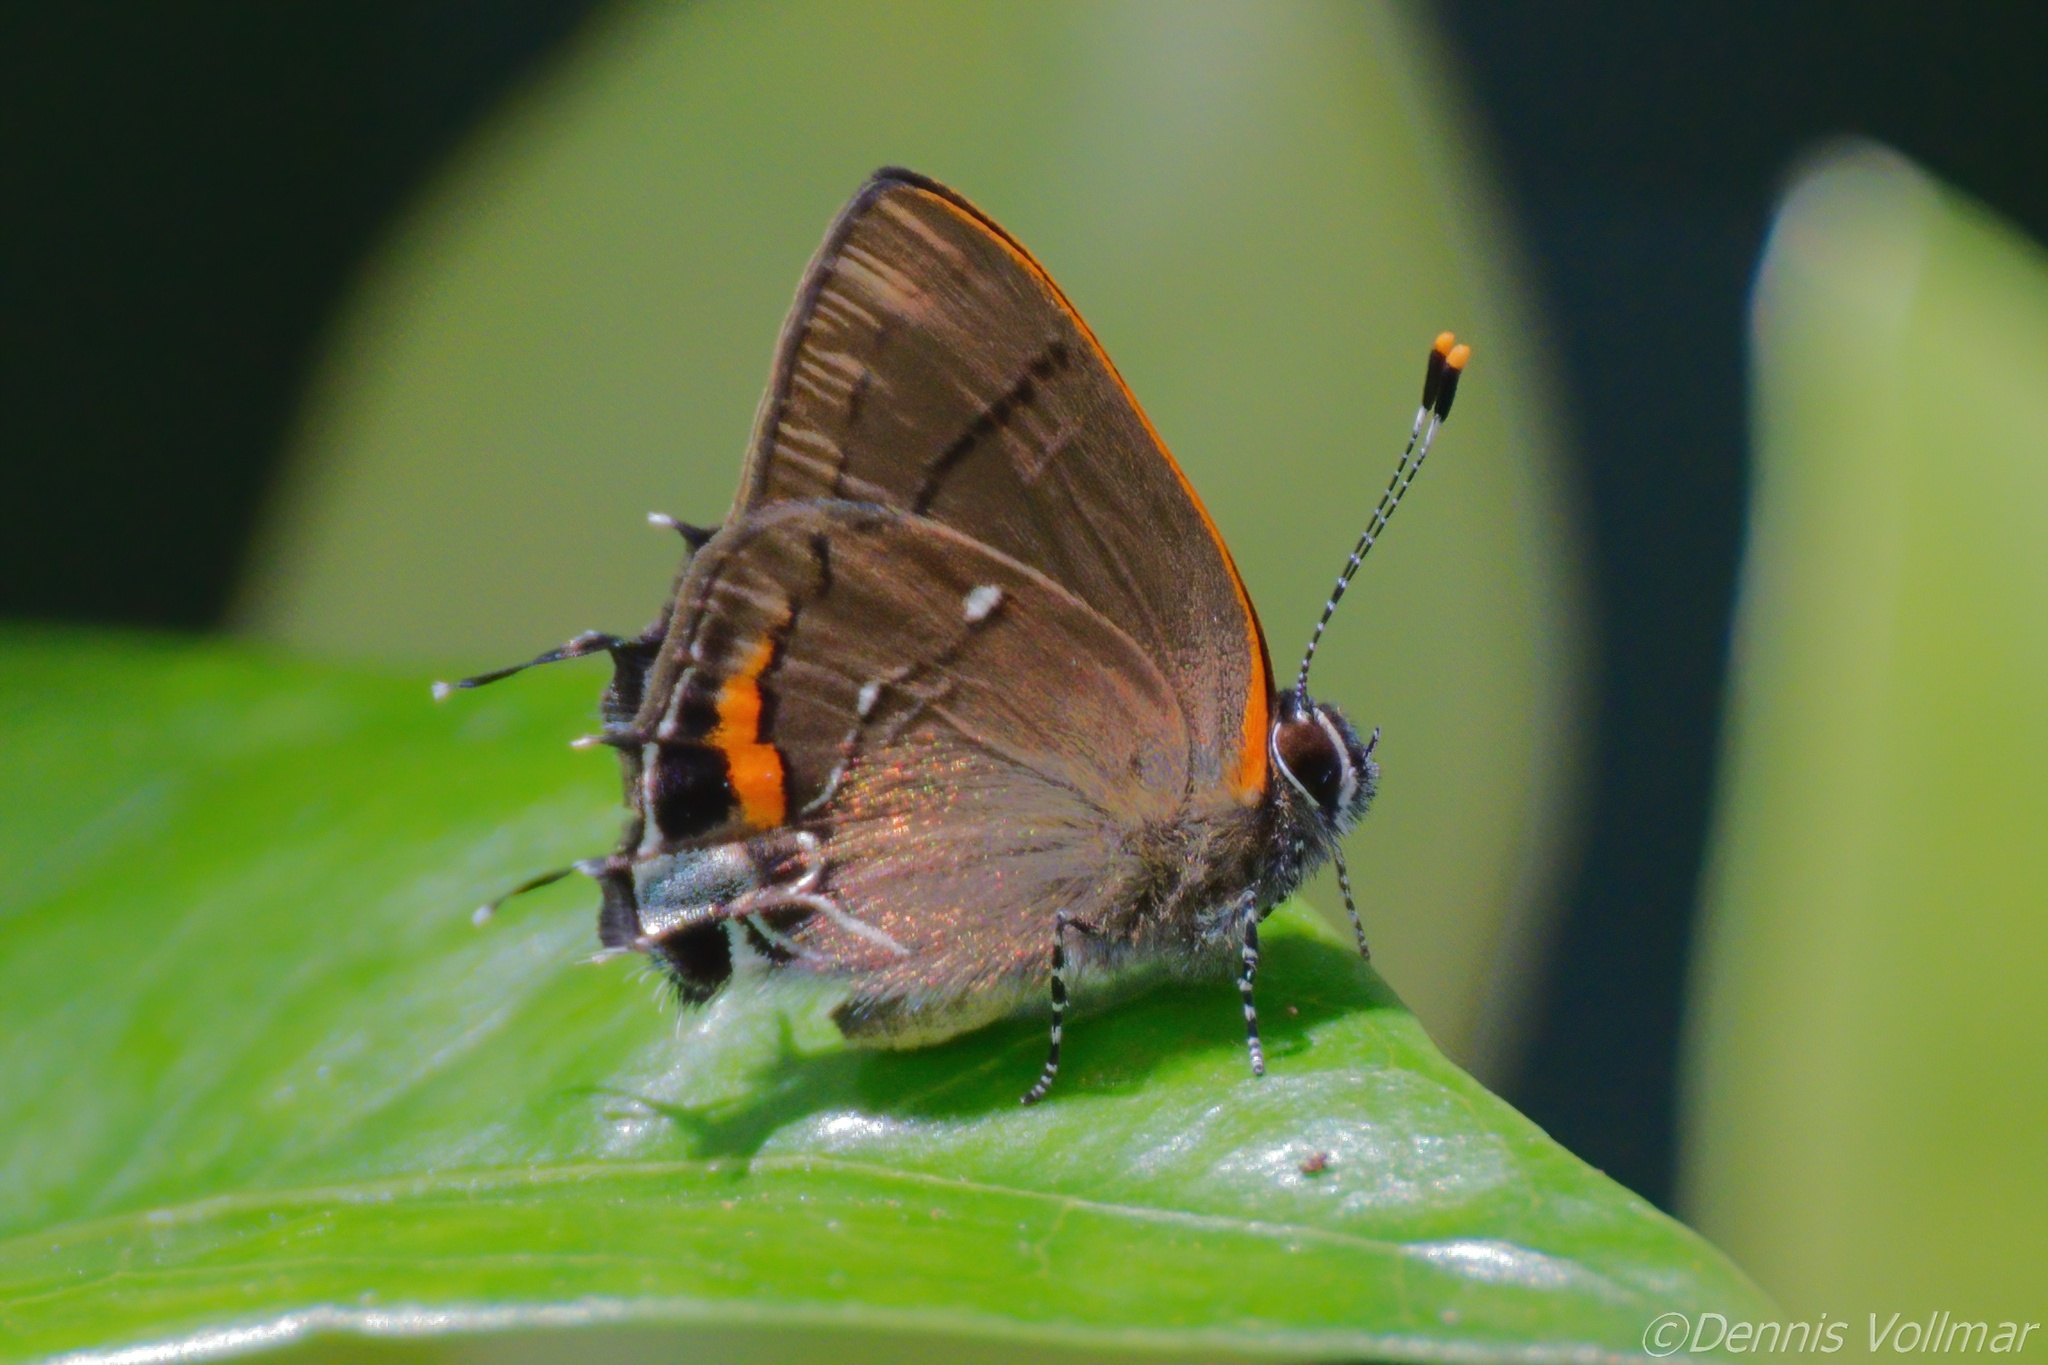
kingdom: Animalia
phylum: Arthropoda
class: Insecta
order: Lepidoptera
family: Lycaenidae
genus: Thecla
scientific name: Thecla angelia
